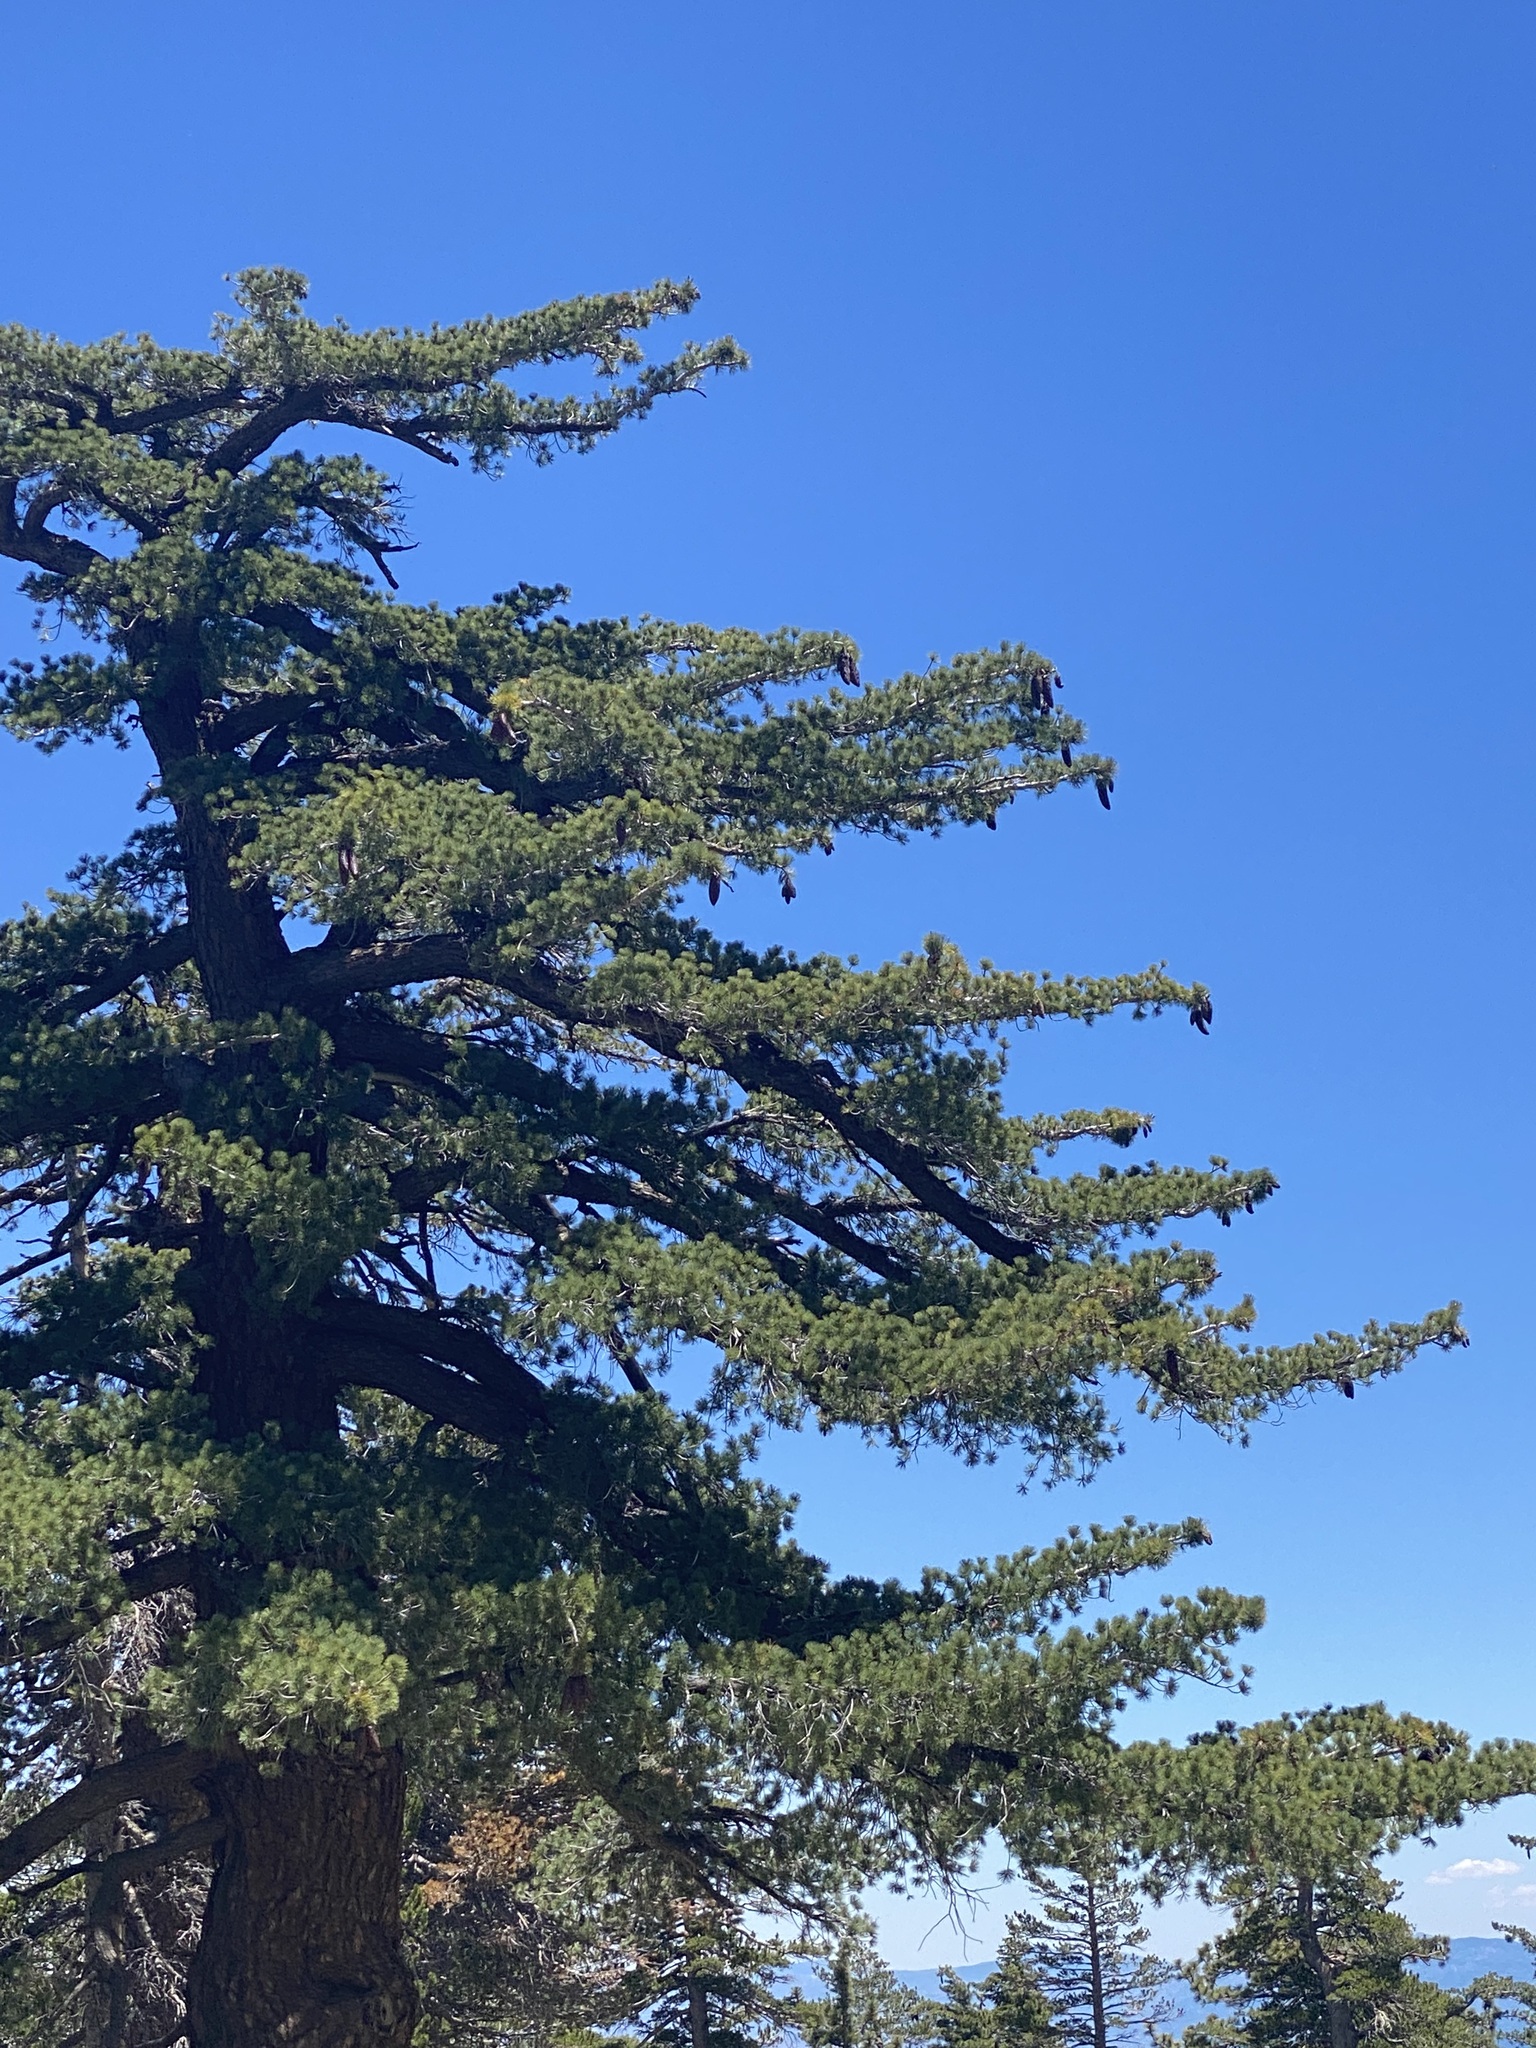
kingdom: Plantae
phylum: Tracheophyta
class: Pinopsida
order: Pinales
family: Pinaceae
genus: Pinus
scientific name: Pinus lambertiana
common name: Sugar pine
